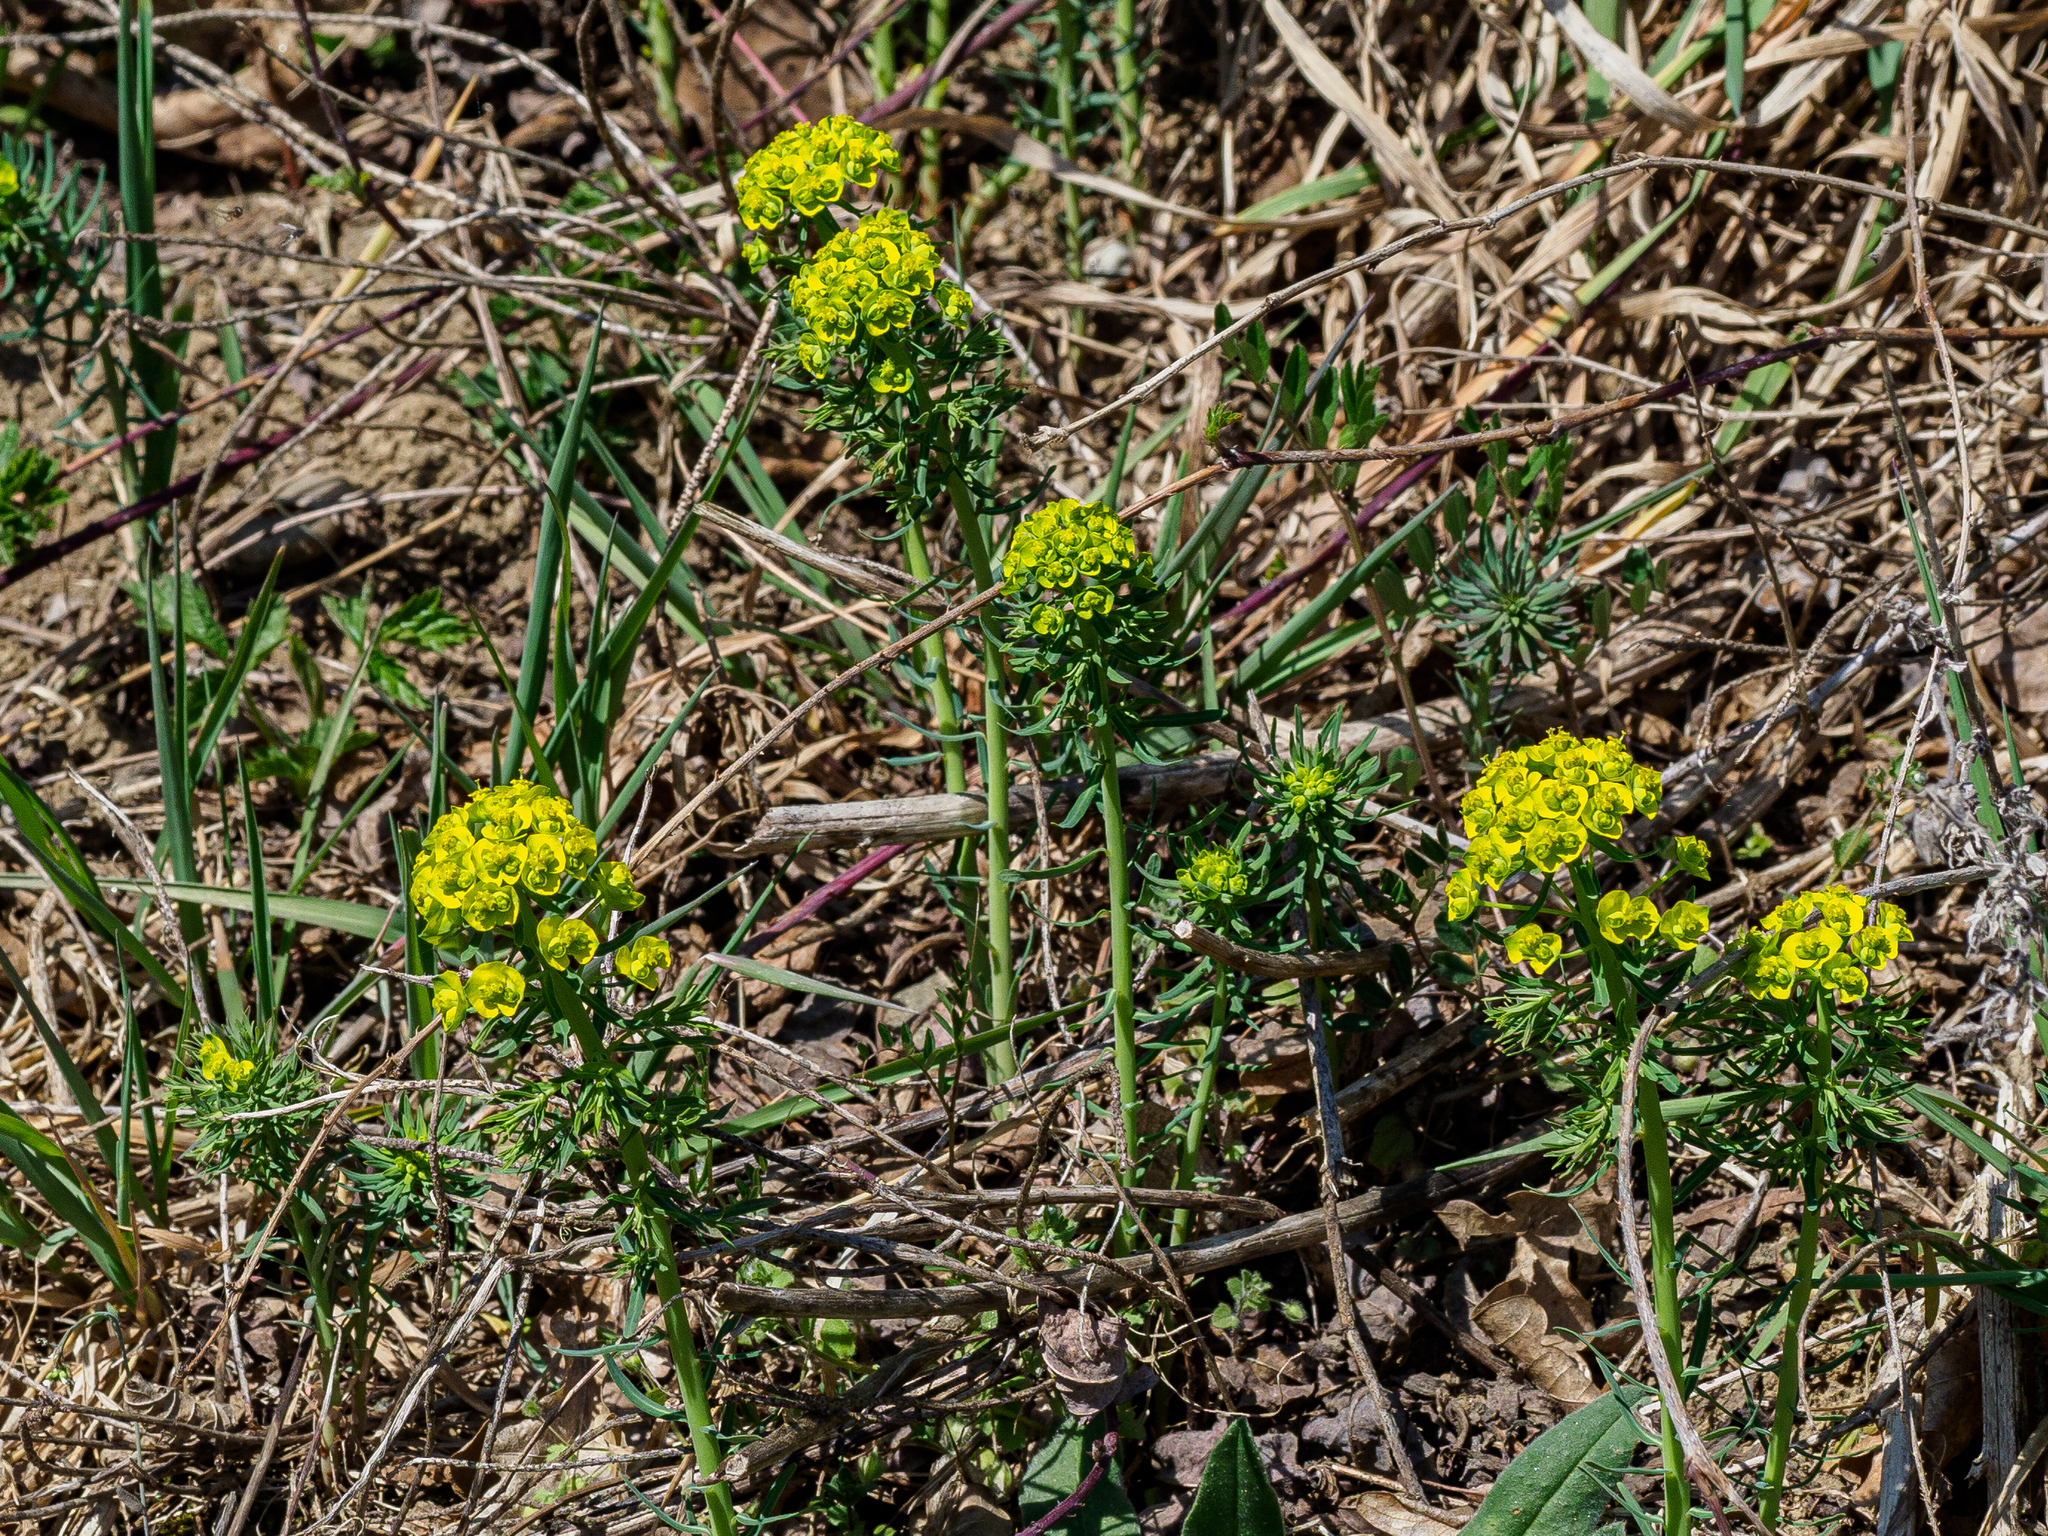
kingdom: Plantae
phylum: Tracheophyta
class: Magnoliopsida
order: Malpighiales
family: Euphorbiaceae
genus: Euphorbia
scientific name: Euphorbia cyparissias
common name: Cypress spurge
